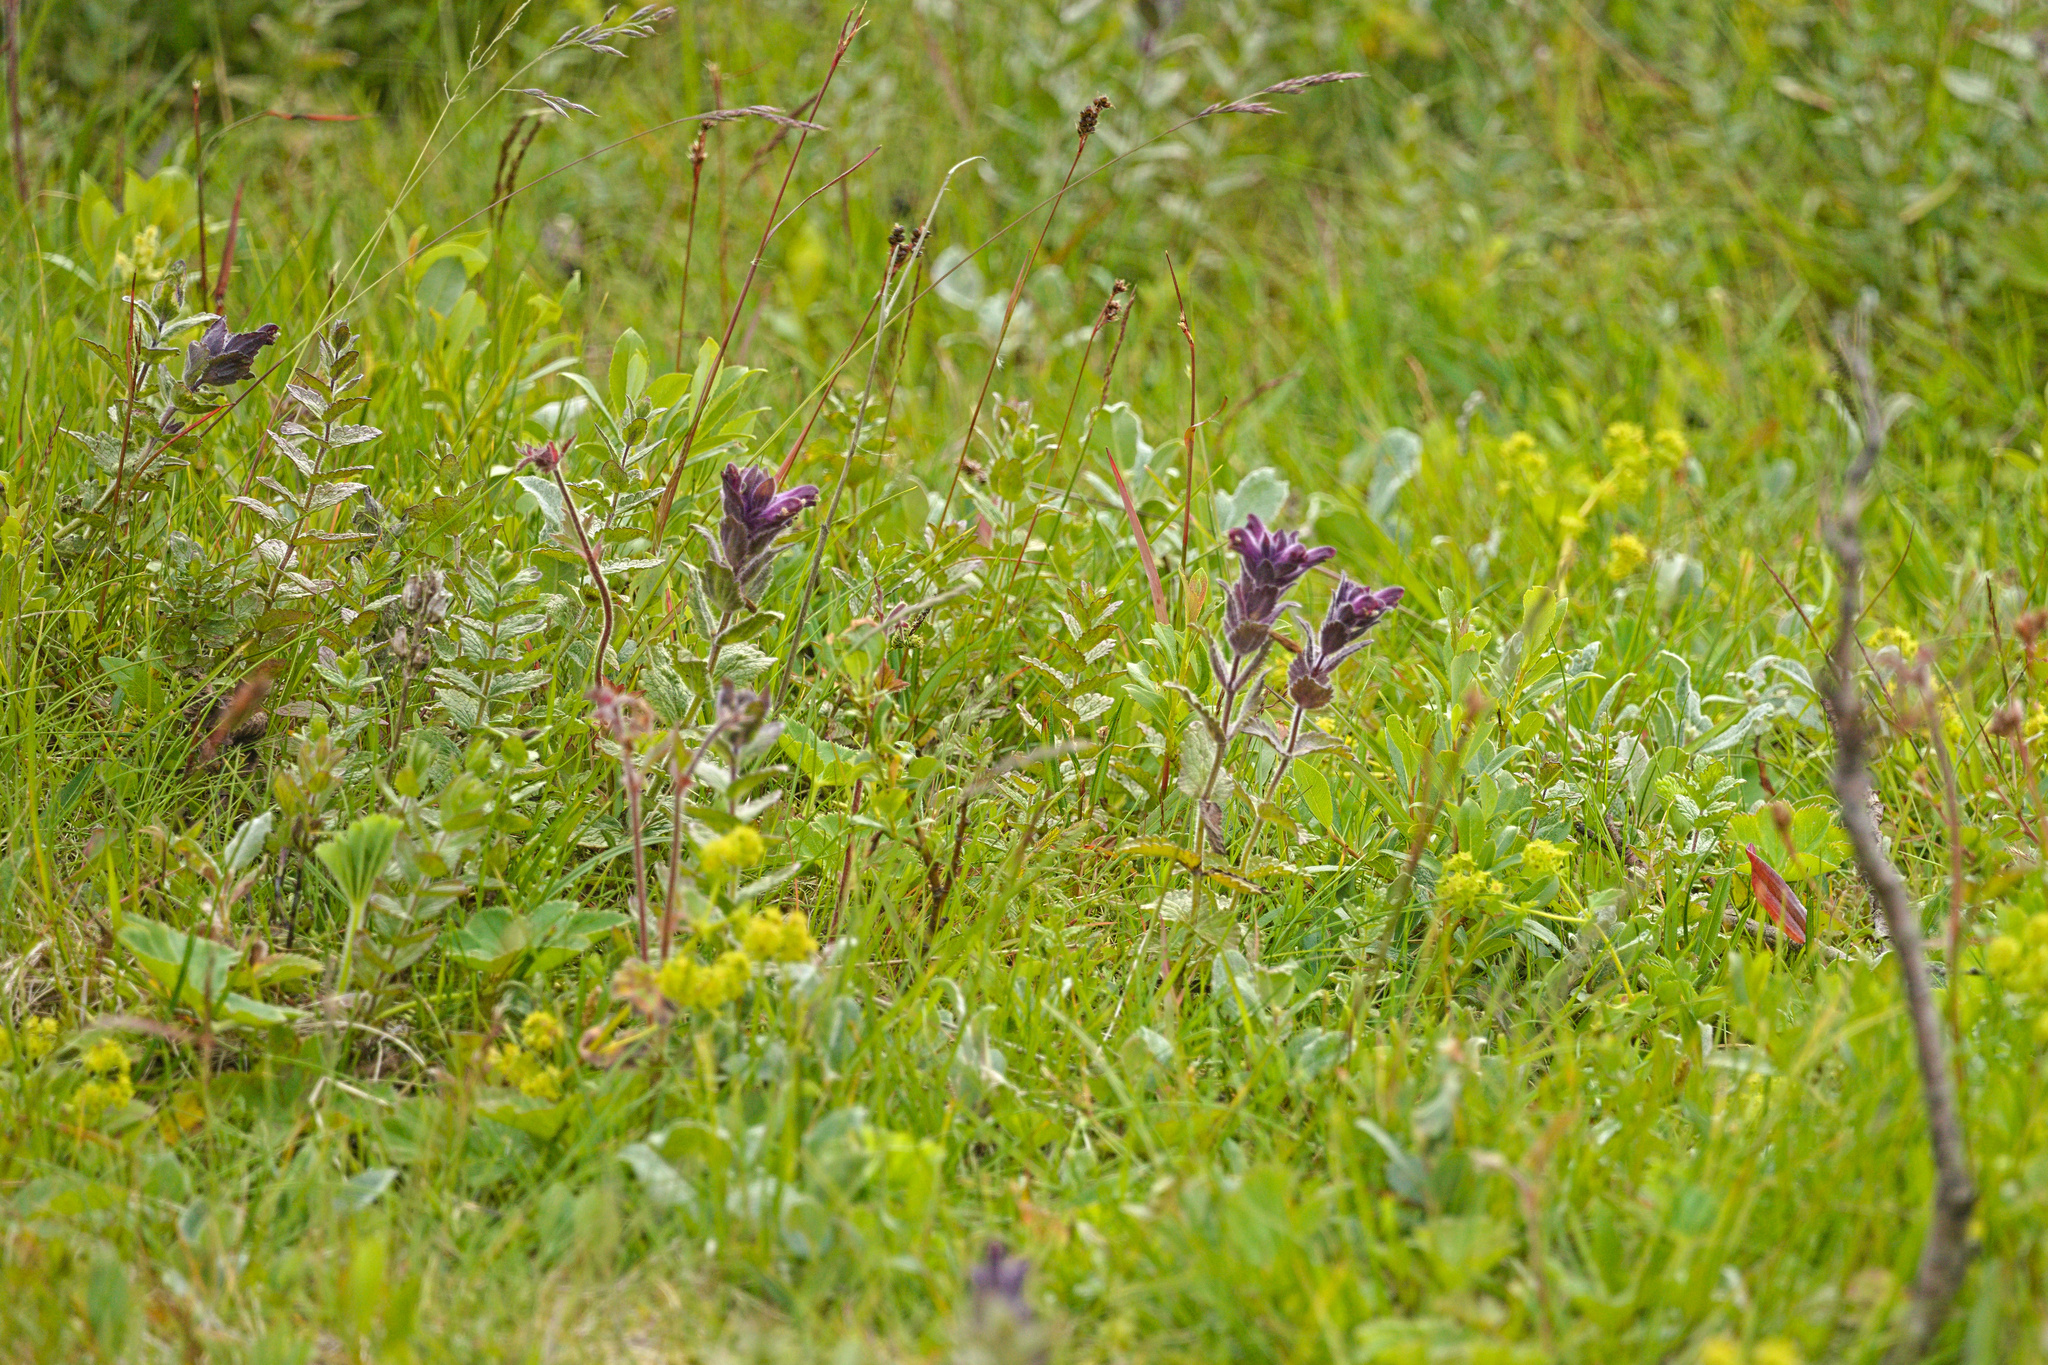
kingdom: Plantae
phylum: Tracheophyta
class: Magnoliopsida
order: Lamiales
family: Orobanchaceae
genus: Bartsia
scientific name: Bartsia alpina
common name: Alpine bartsia
